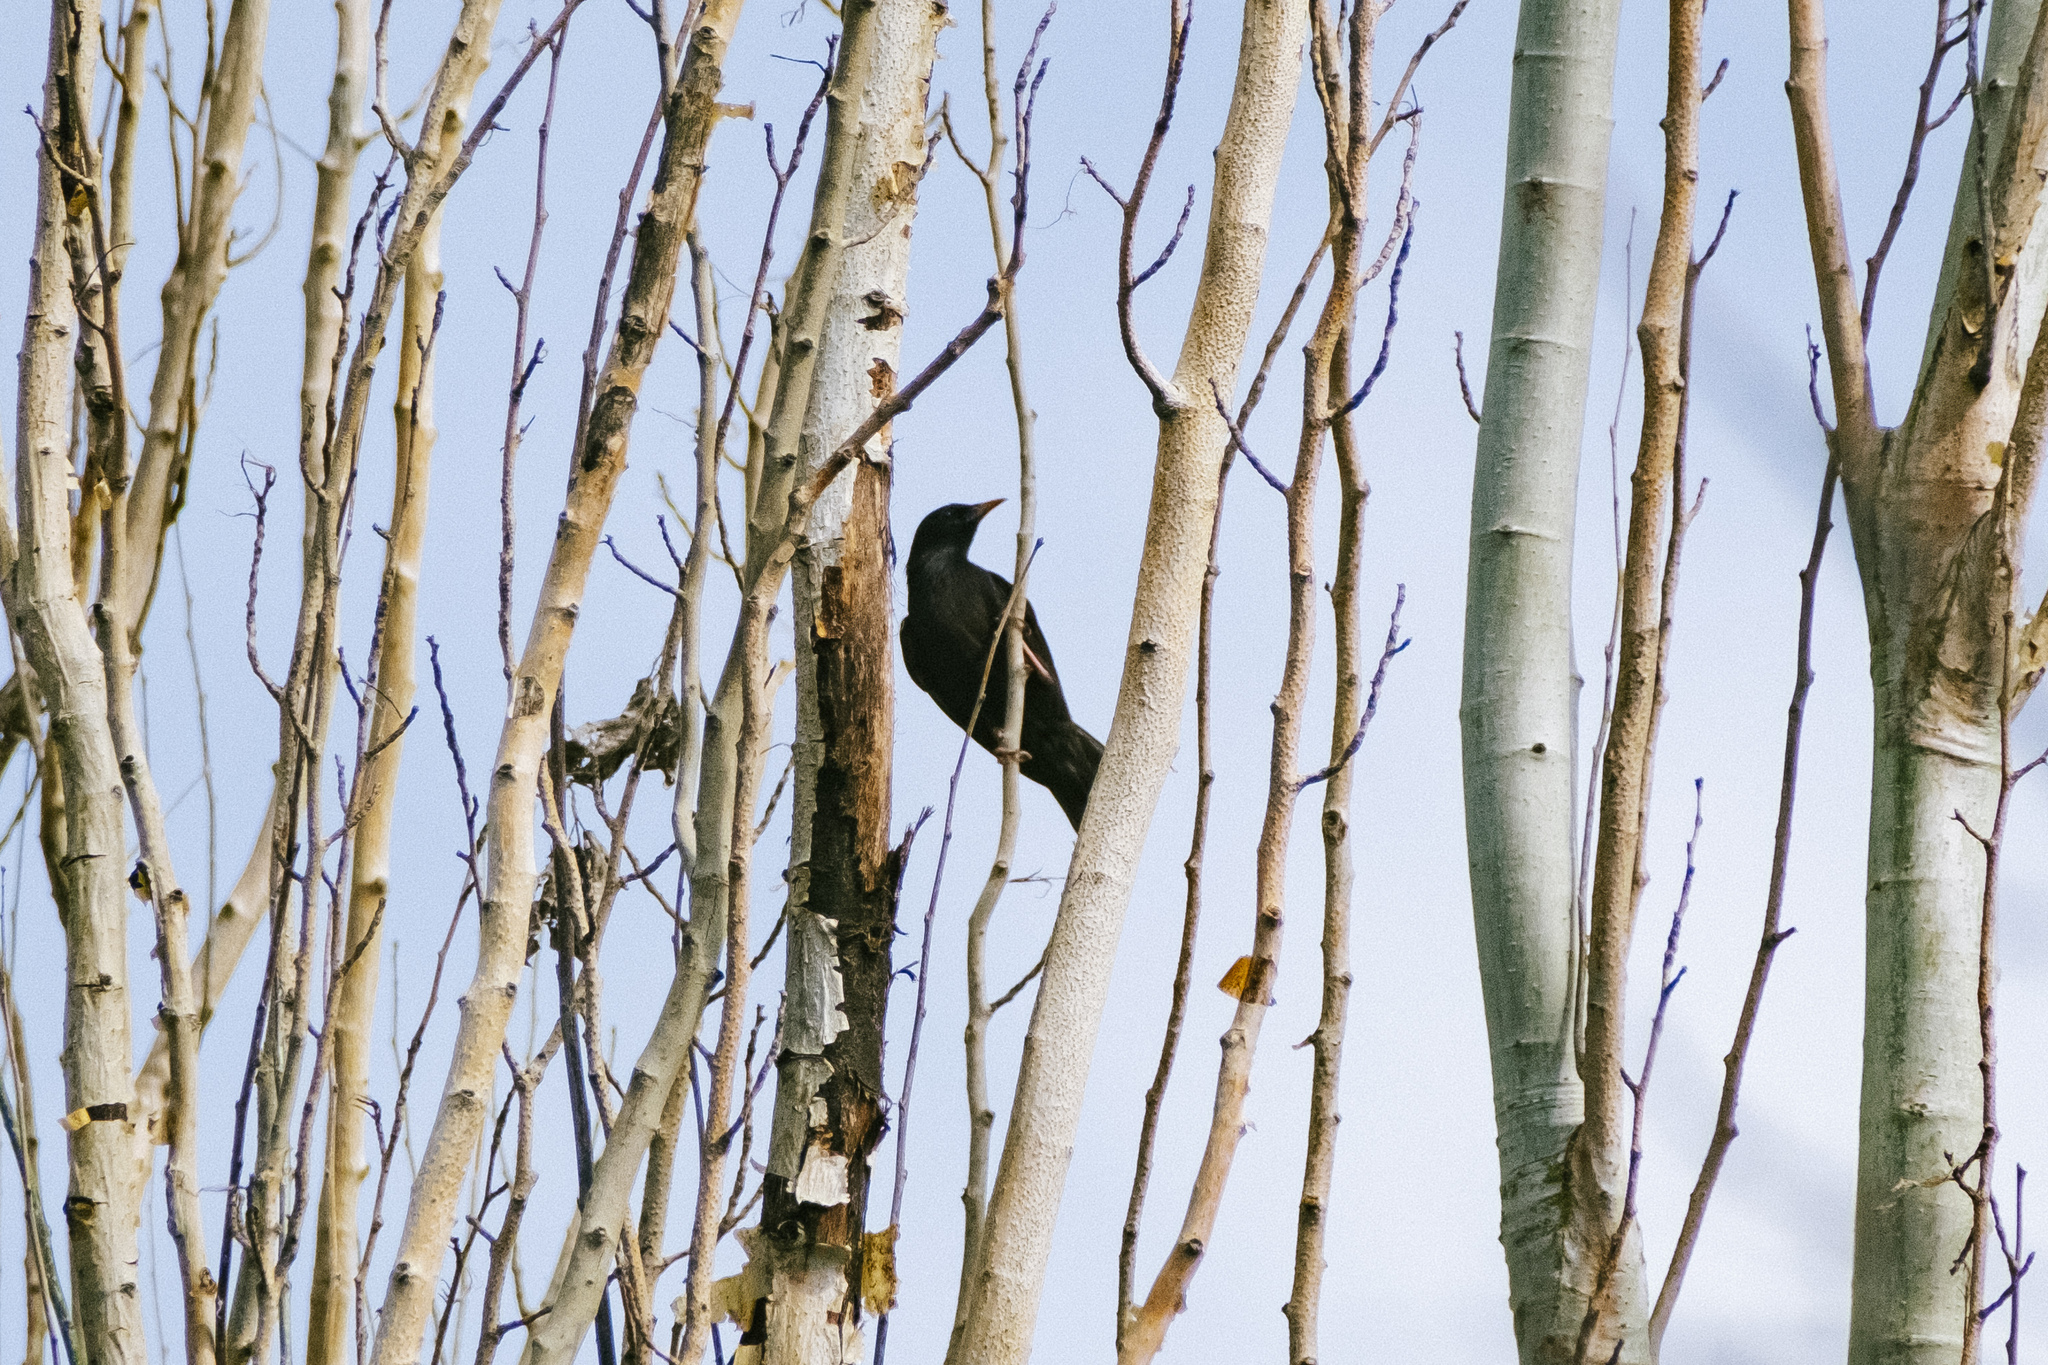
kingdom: Animalia
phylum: Chordata
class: Aves
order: Passeriformes
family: Sturnidae
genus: Sturnus
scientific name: Sturnus unicolor
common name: Spotless starling
